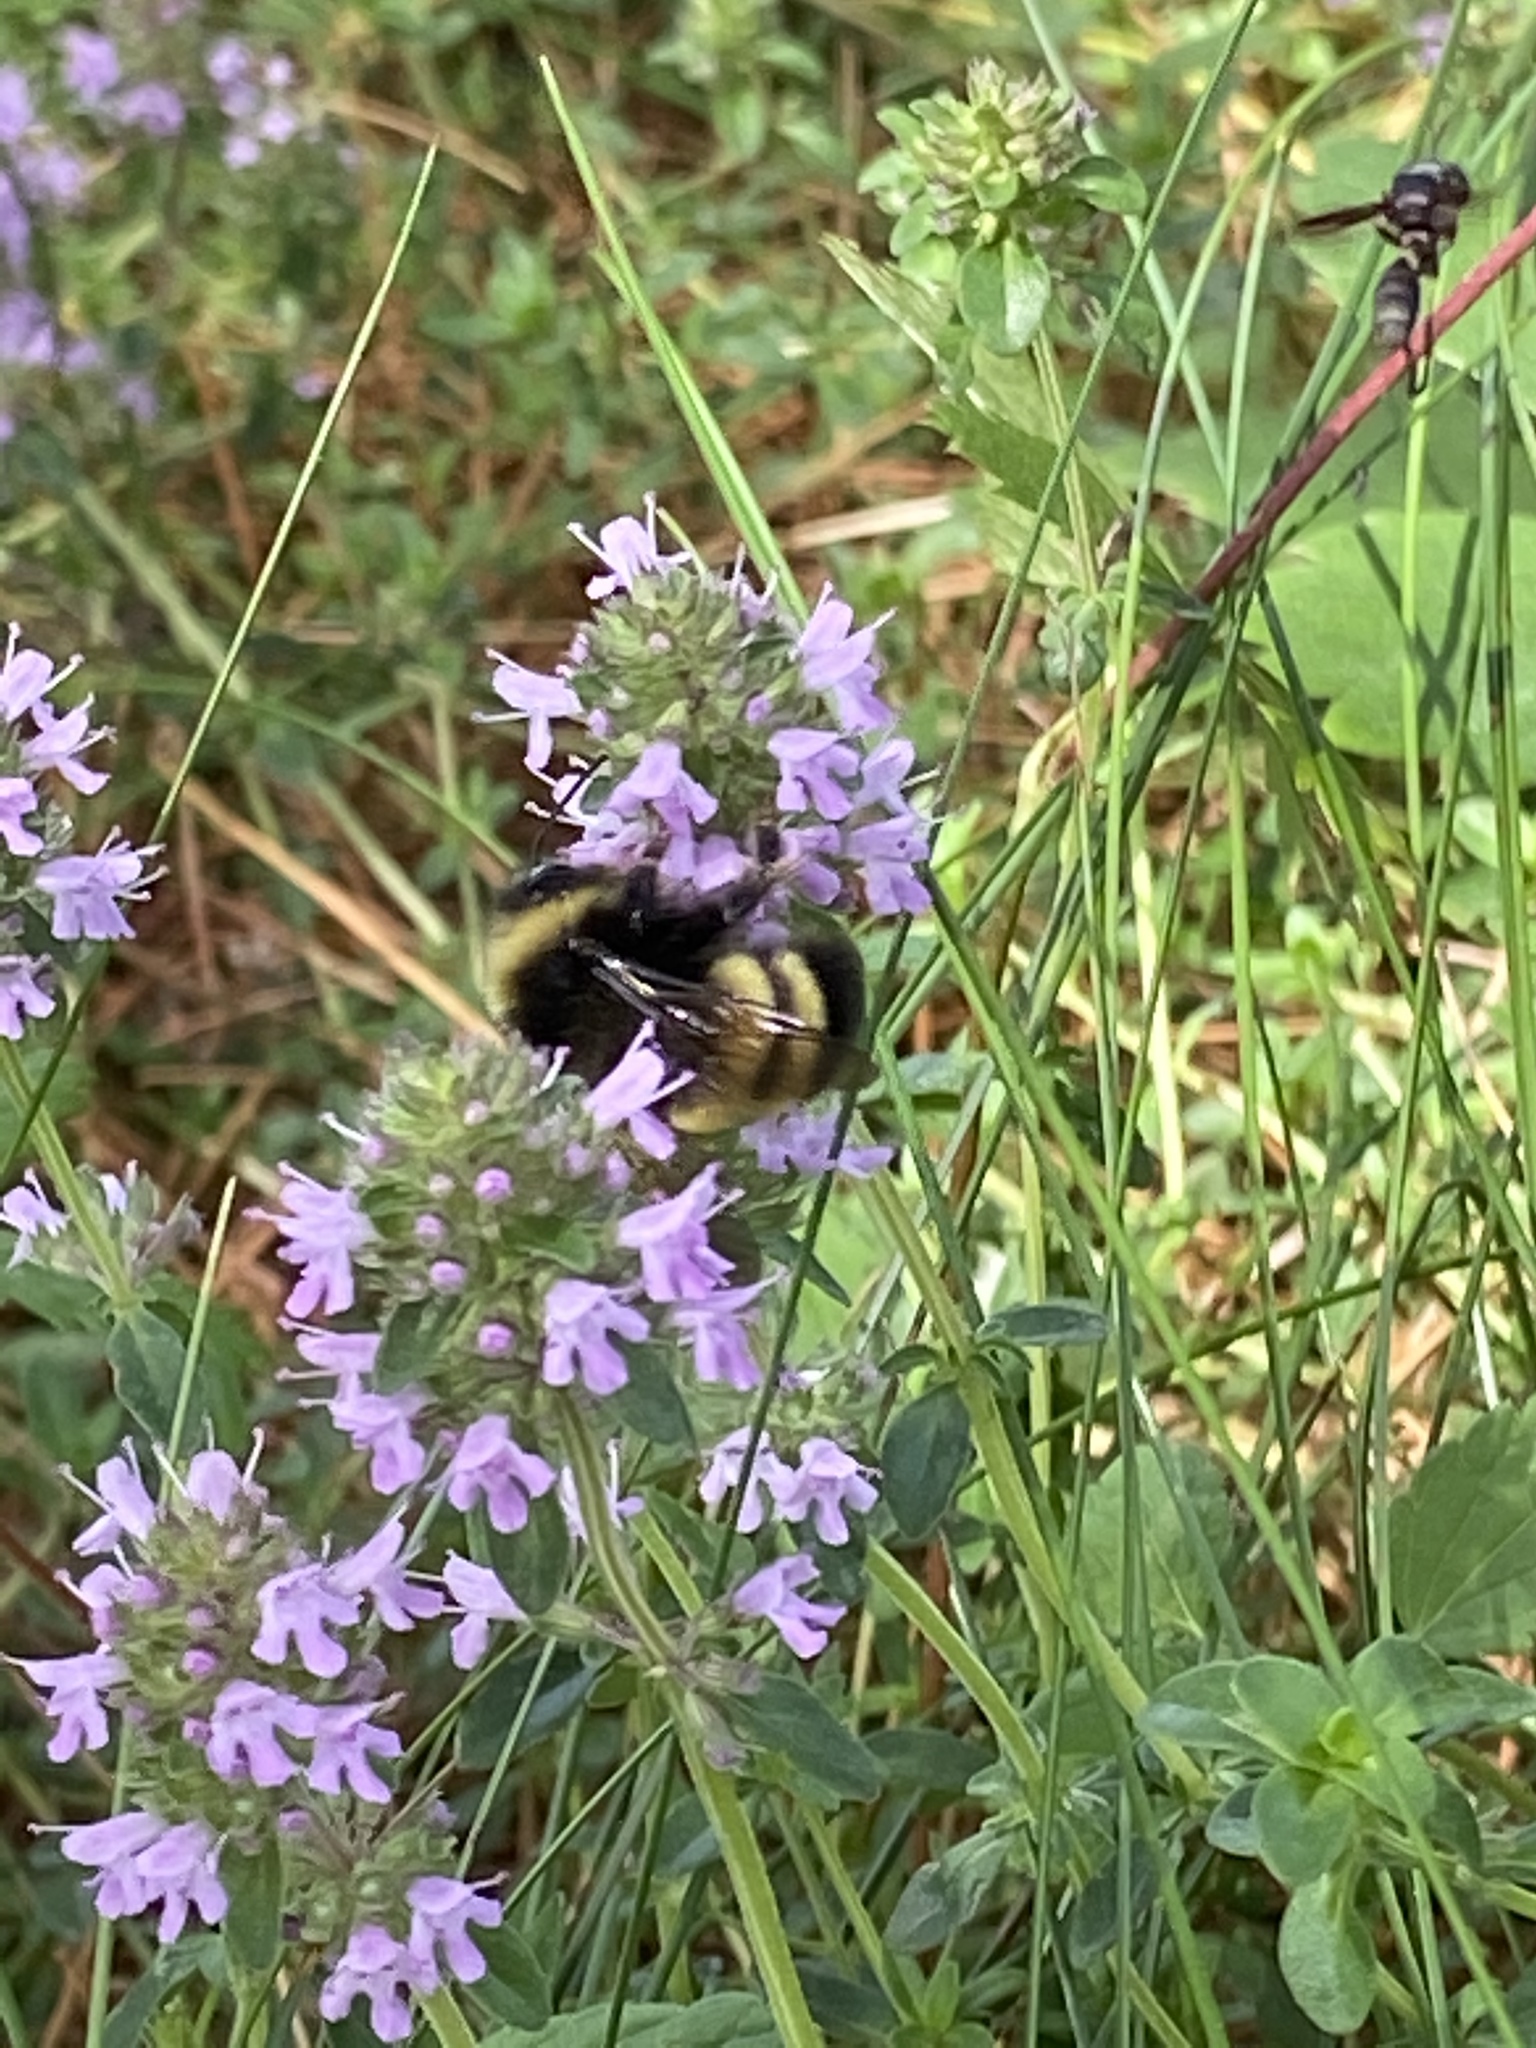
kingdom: Animalia
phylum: Arthropoda
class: Insecta
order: Hymenoptera
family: Apidae
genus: Bombus
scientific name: Bombus terricola
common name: Yellow-banded bumble bee
